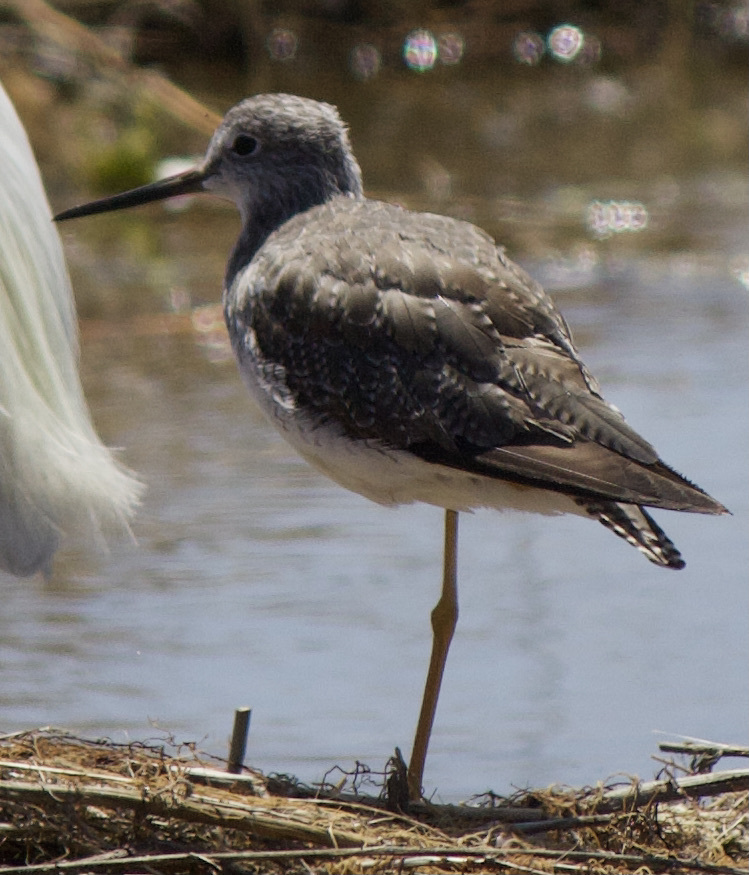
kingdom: Animalia
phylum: Chordata
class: Aves
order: Charadriiformes
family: Scolopacidae
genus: Tringa
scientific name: Tringa melanoleuca
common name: Greater yellowlegs
